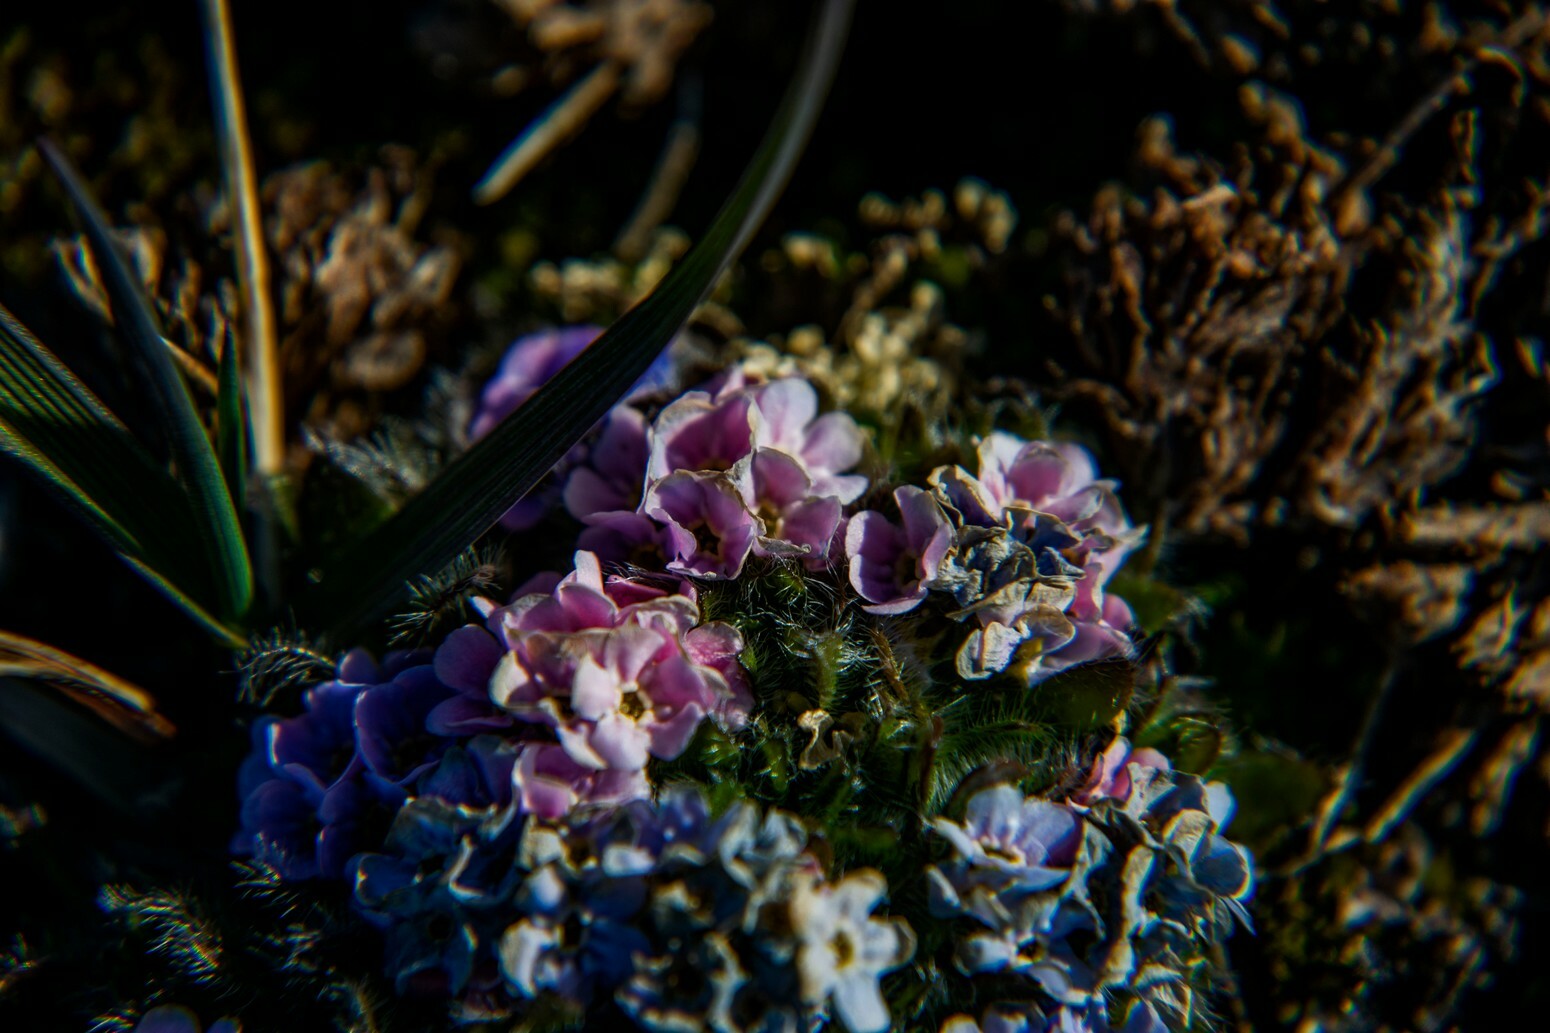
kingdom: Plantae
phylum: Tracheophyta
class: Magnoliopsida
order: Boraginales
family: Boraginaceae
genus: Eritrichium
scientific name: Eritrichium pulvinatum
